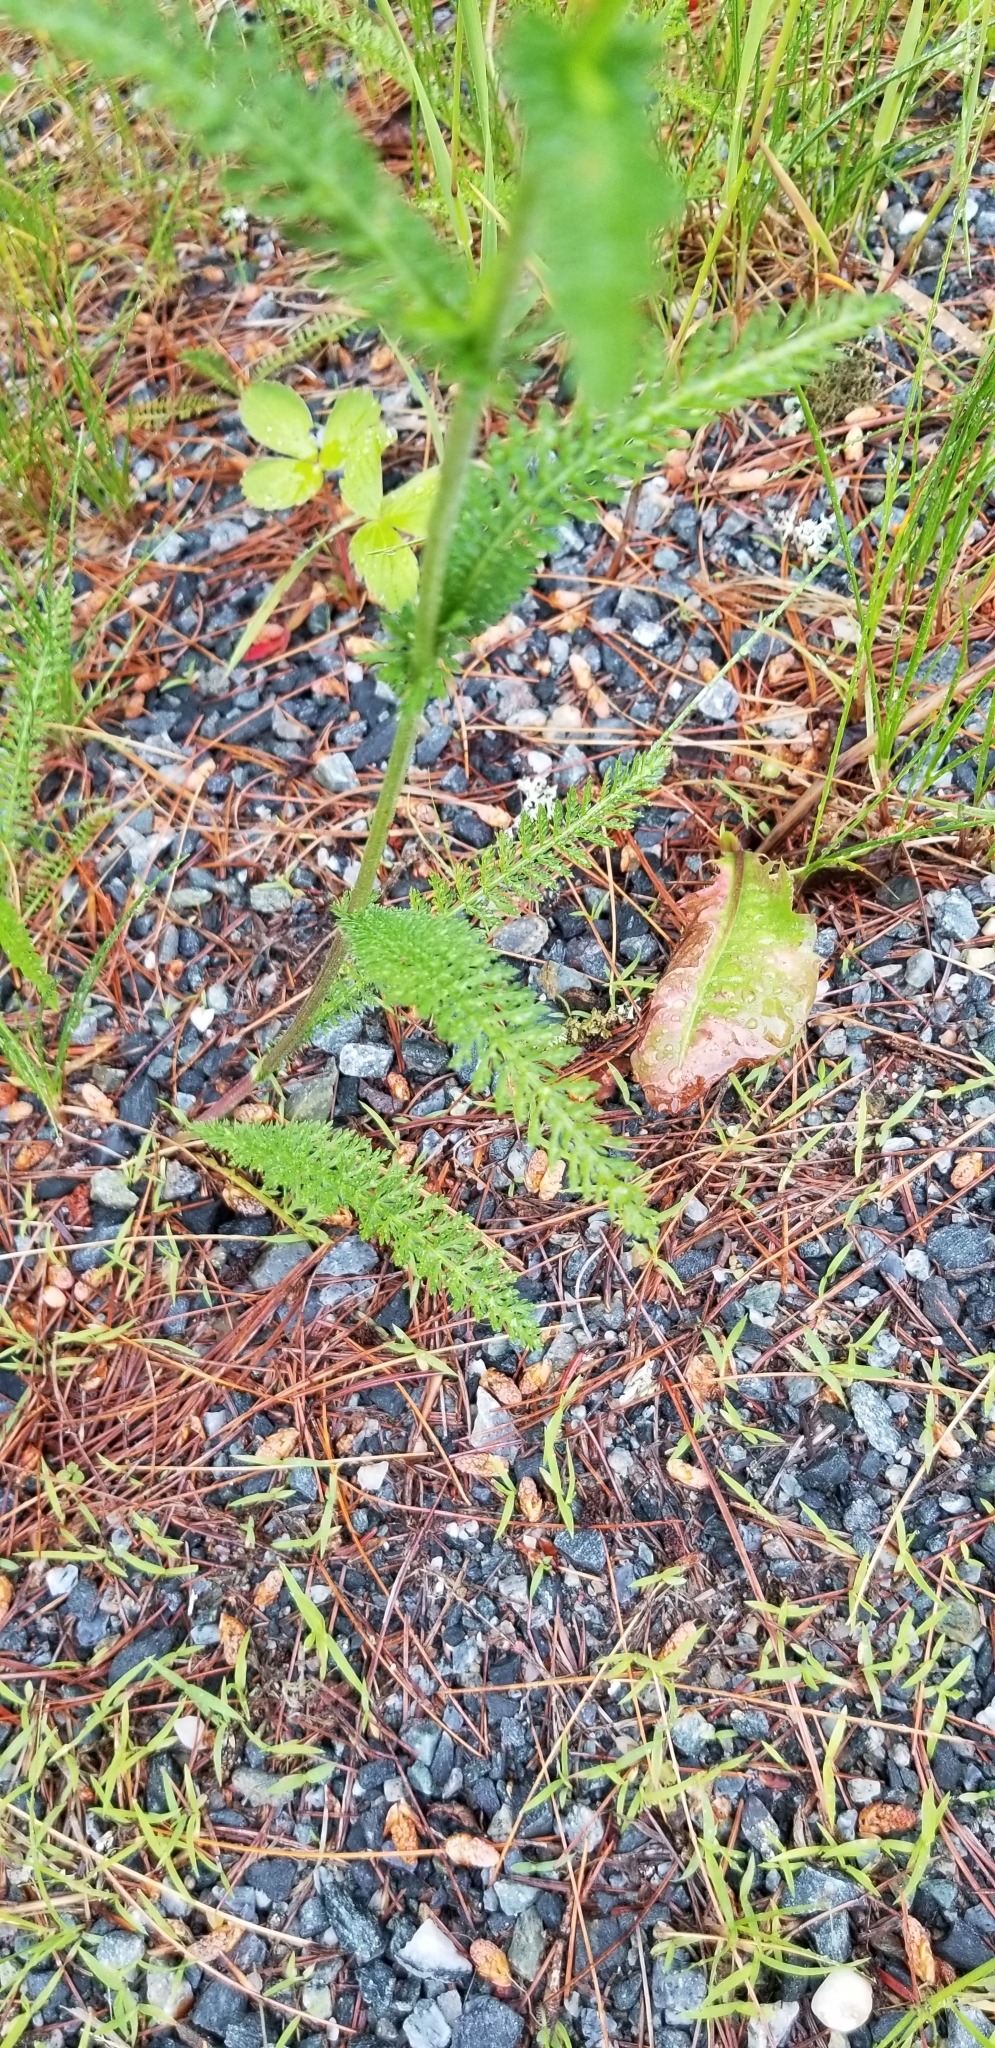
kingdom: Plantae
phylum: Tracheophyta
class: Magnoliopsida
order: Asterales
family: Asteraceae
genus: Achillea
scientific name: Achillea millefolium
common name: Yarrow
